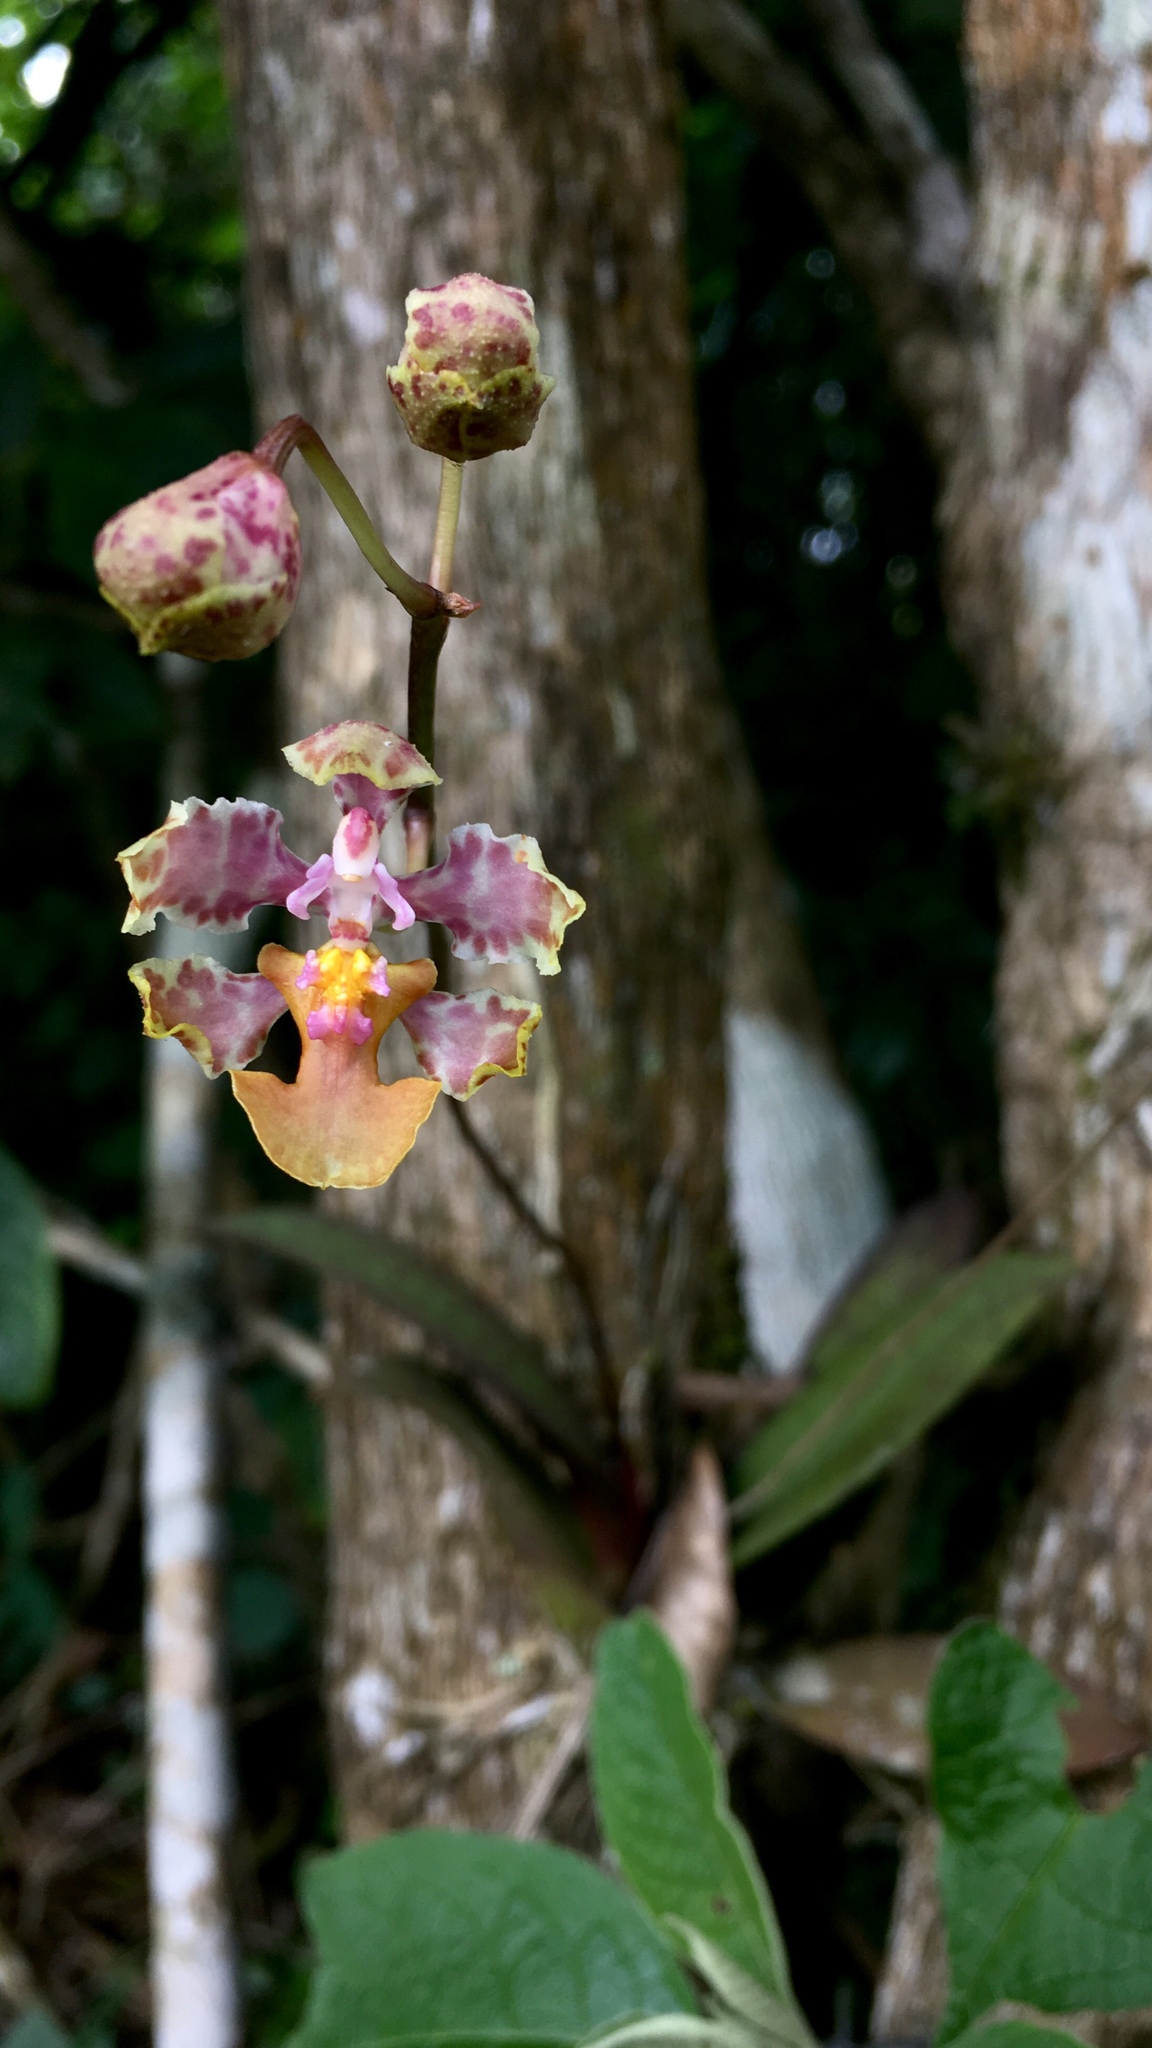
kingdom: Plantae
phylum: Tracheophyta
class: Liliopsida
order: Asparagales
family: Orchidaceae
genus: Trichocentrum
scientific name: Trichocentrum andreanum
